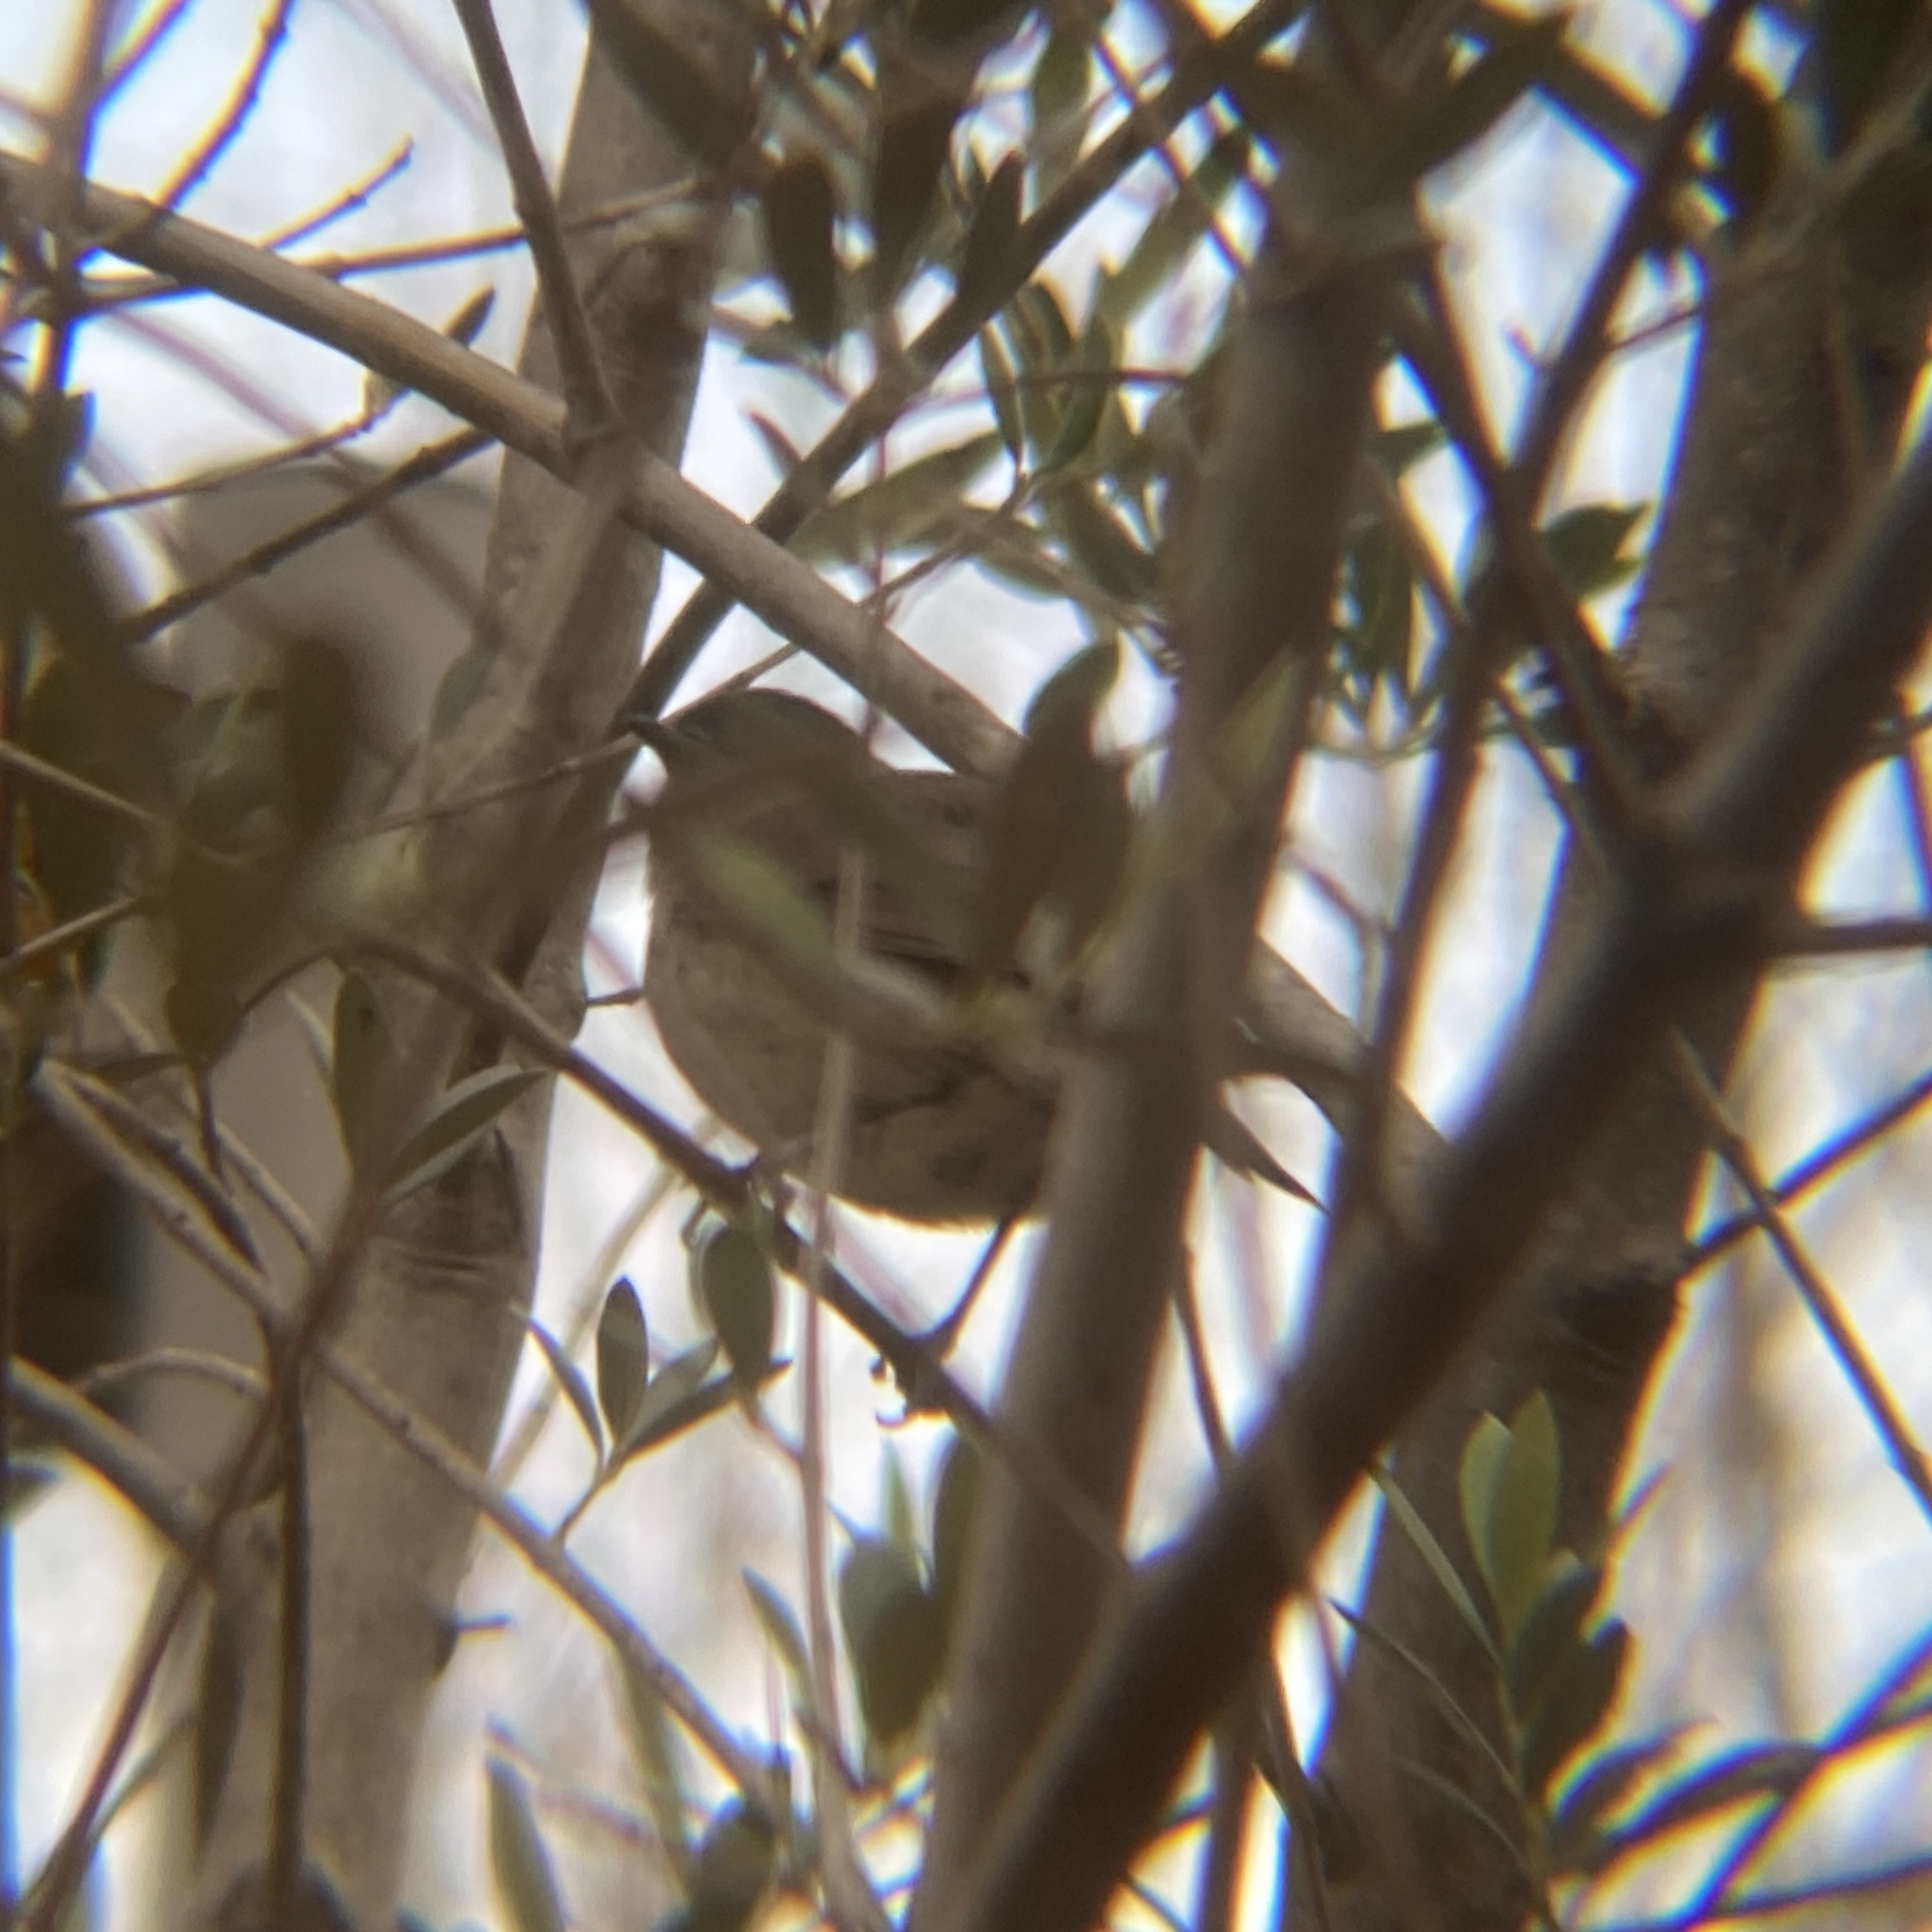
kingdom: Animalia
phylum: Chordata
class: Aves
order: Passeriformes
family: Sylviidae
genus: Sylvia
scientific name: Sylvia atricapilla
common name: Eurasian blackcap
